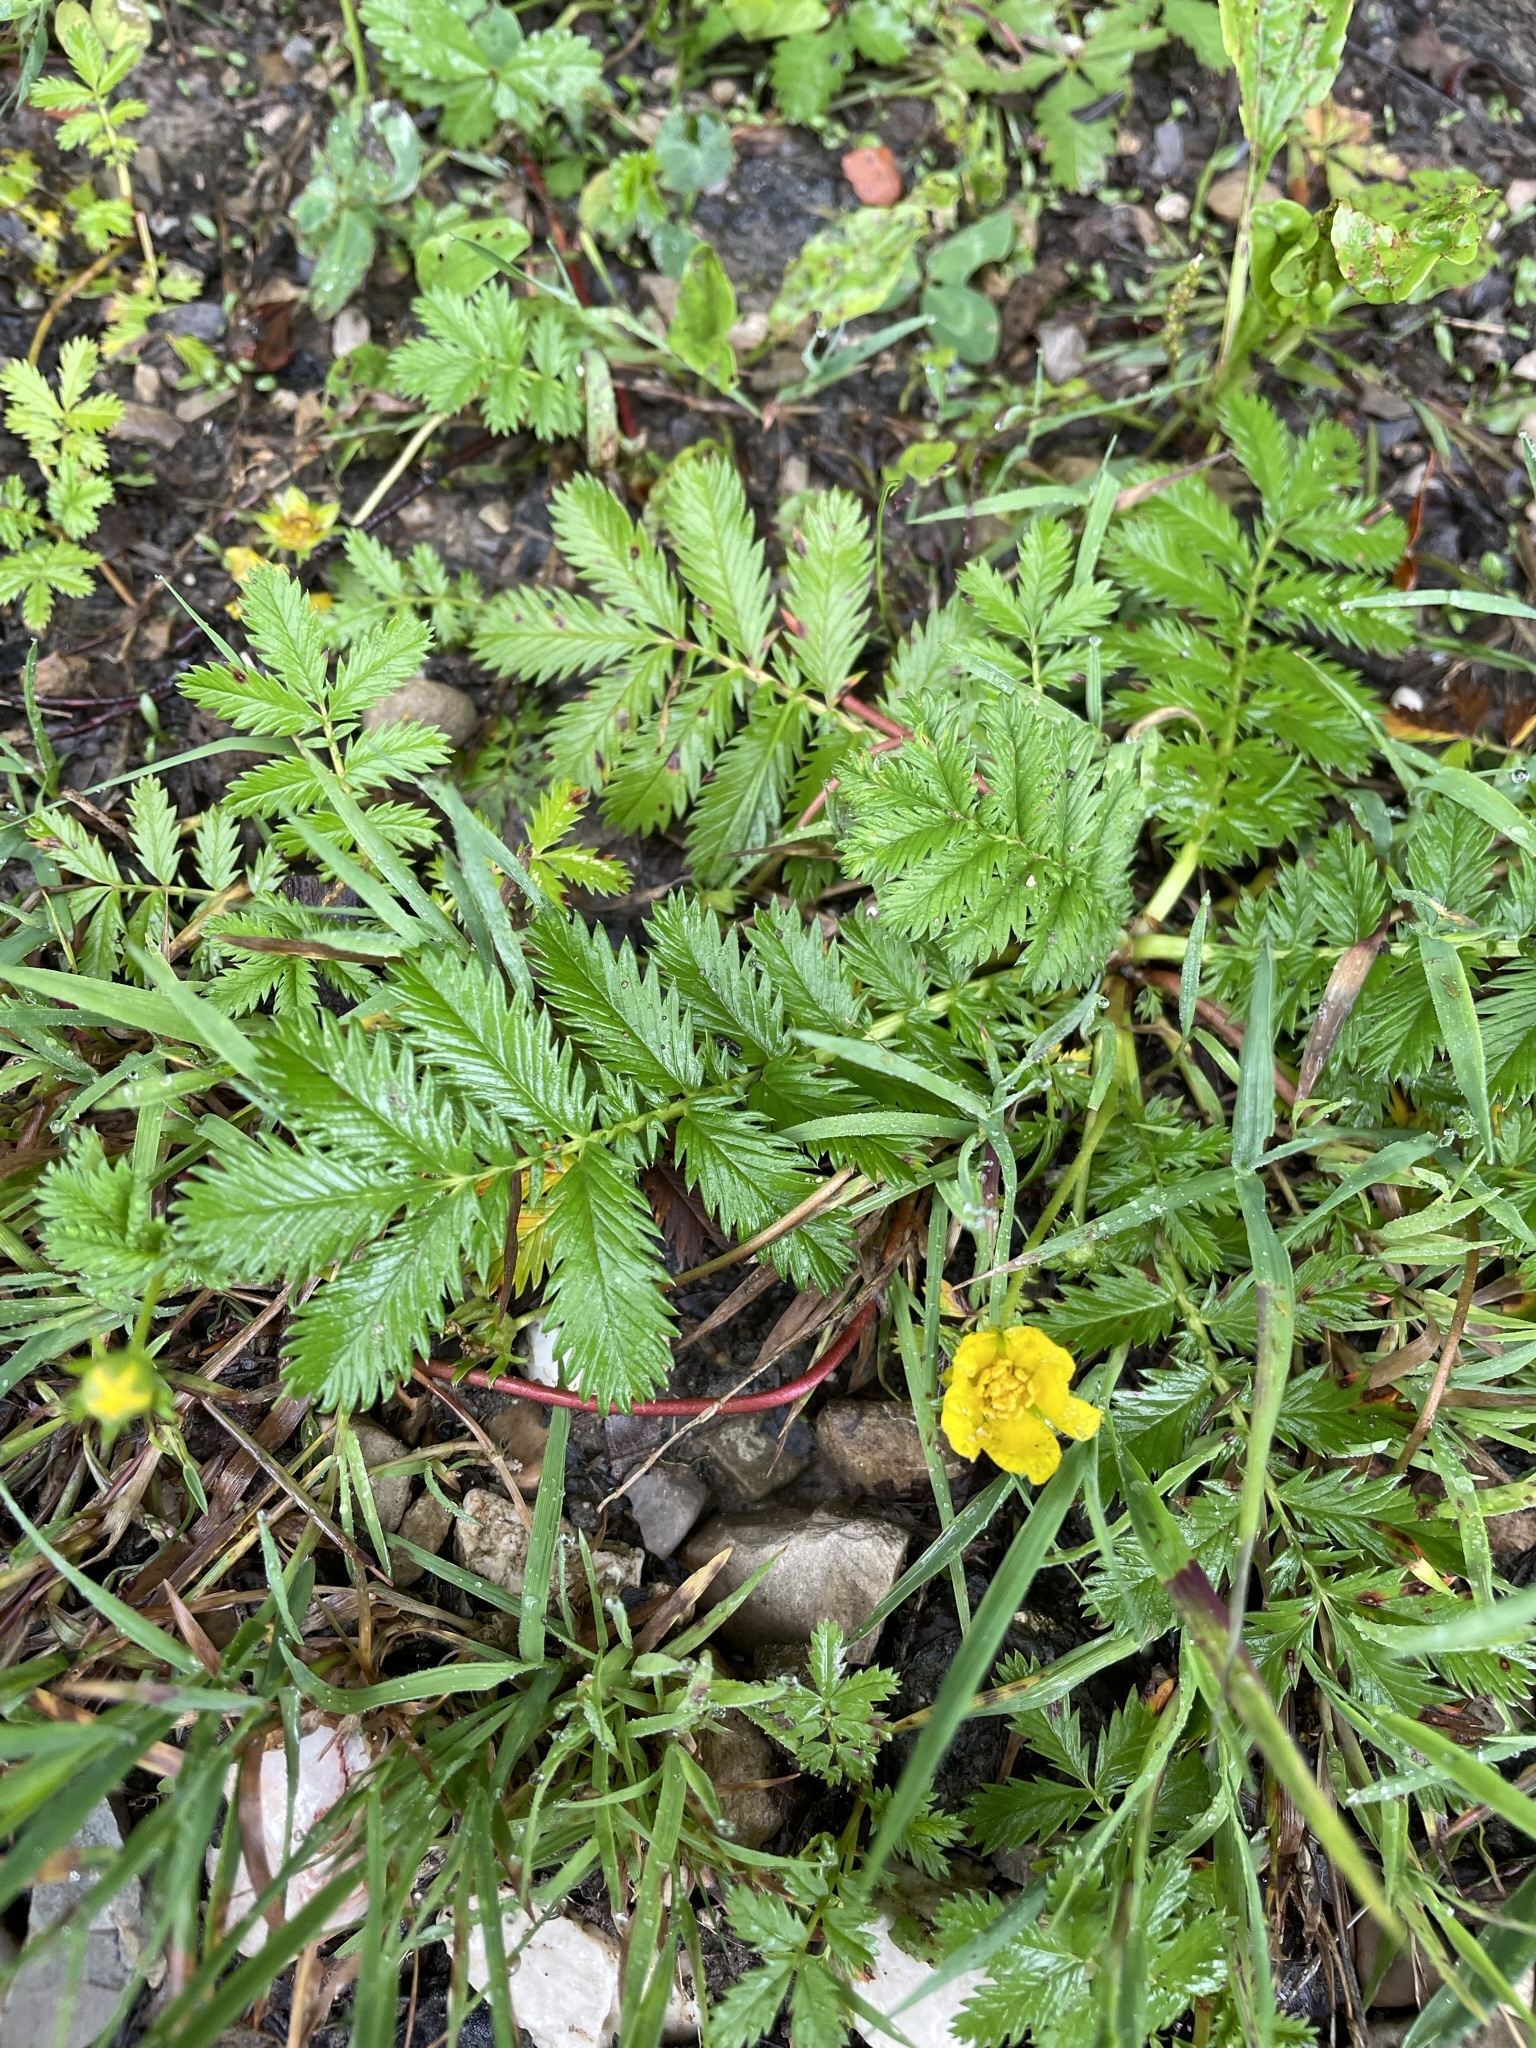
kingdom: Plantae
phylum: Tracheophyta
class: Magnoliopsida
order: Rosales
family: Rosaceae
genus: Argentina
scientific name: Argentina anserina
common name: Common silverweed
